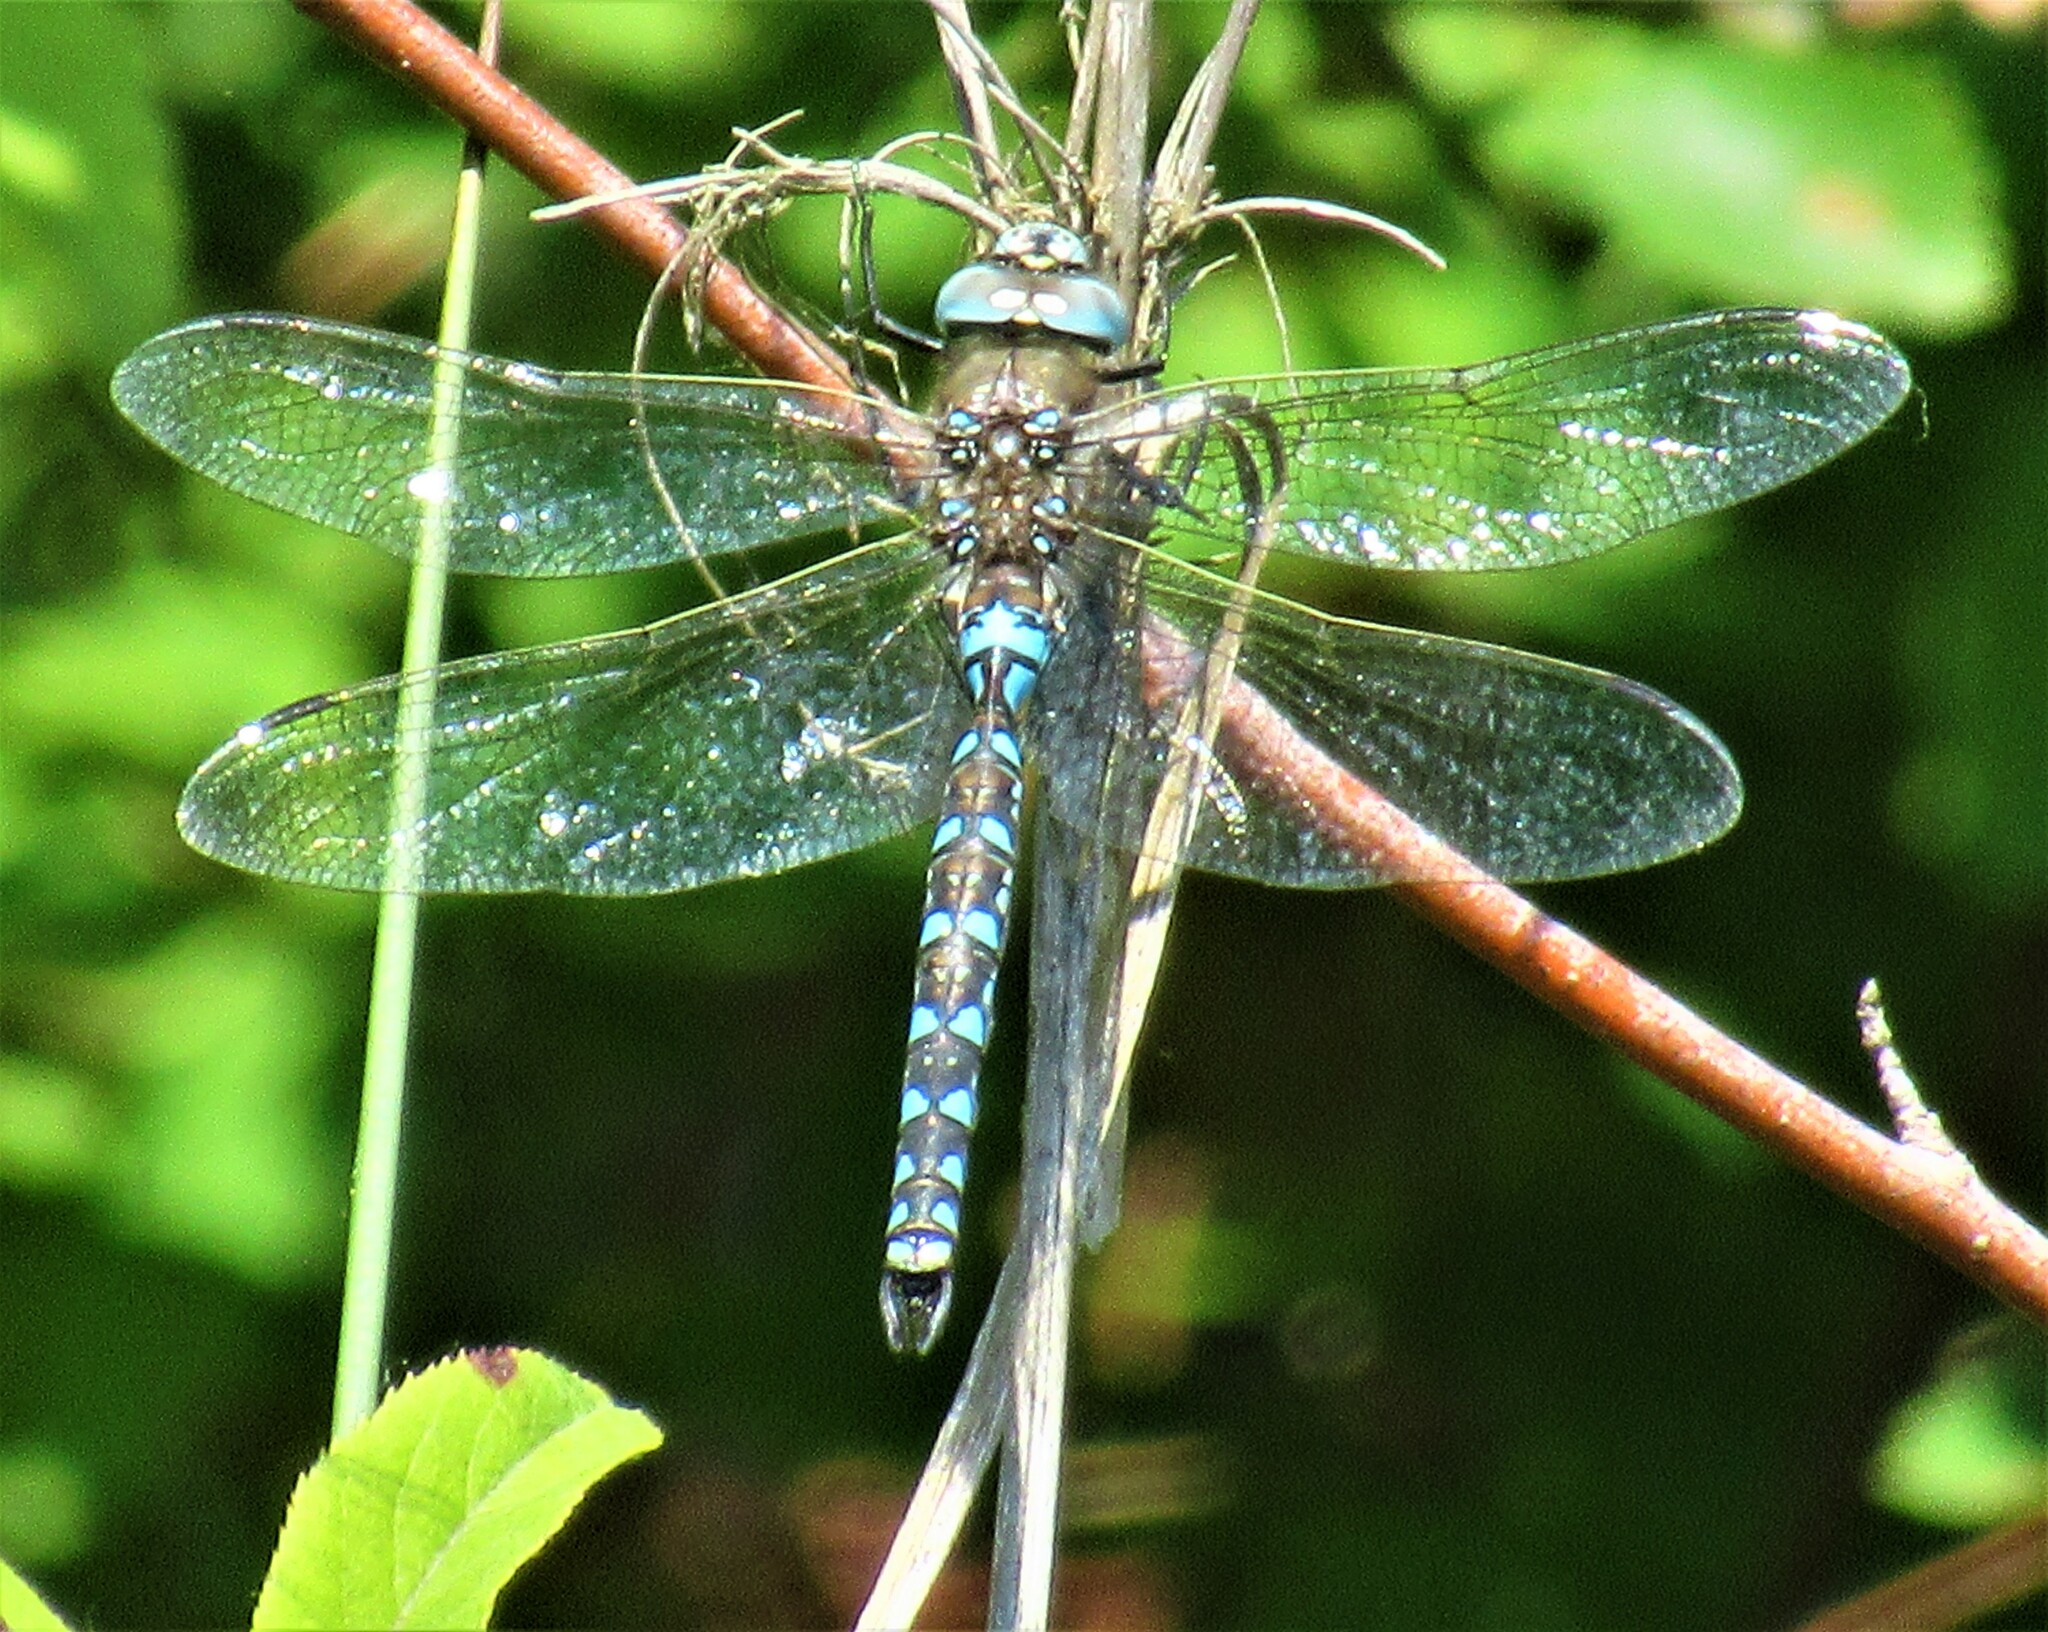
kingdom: Animalia
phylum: Arthropoda
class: Insecta
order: Odonata
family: Aeshnidae
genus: Rhionaeschna
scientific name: Rhionaeschna californica
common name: California darner
